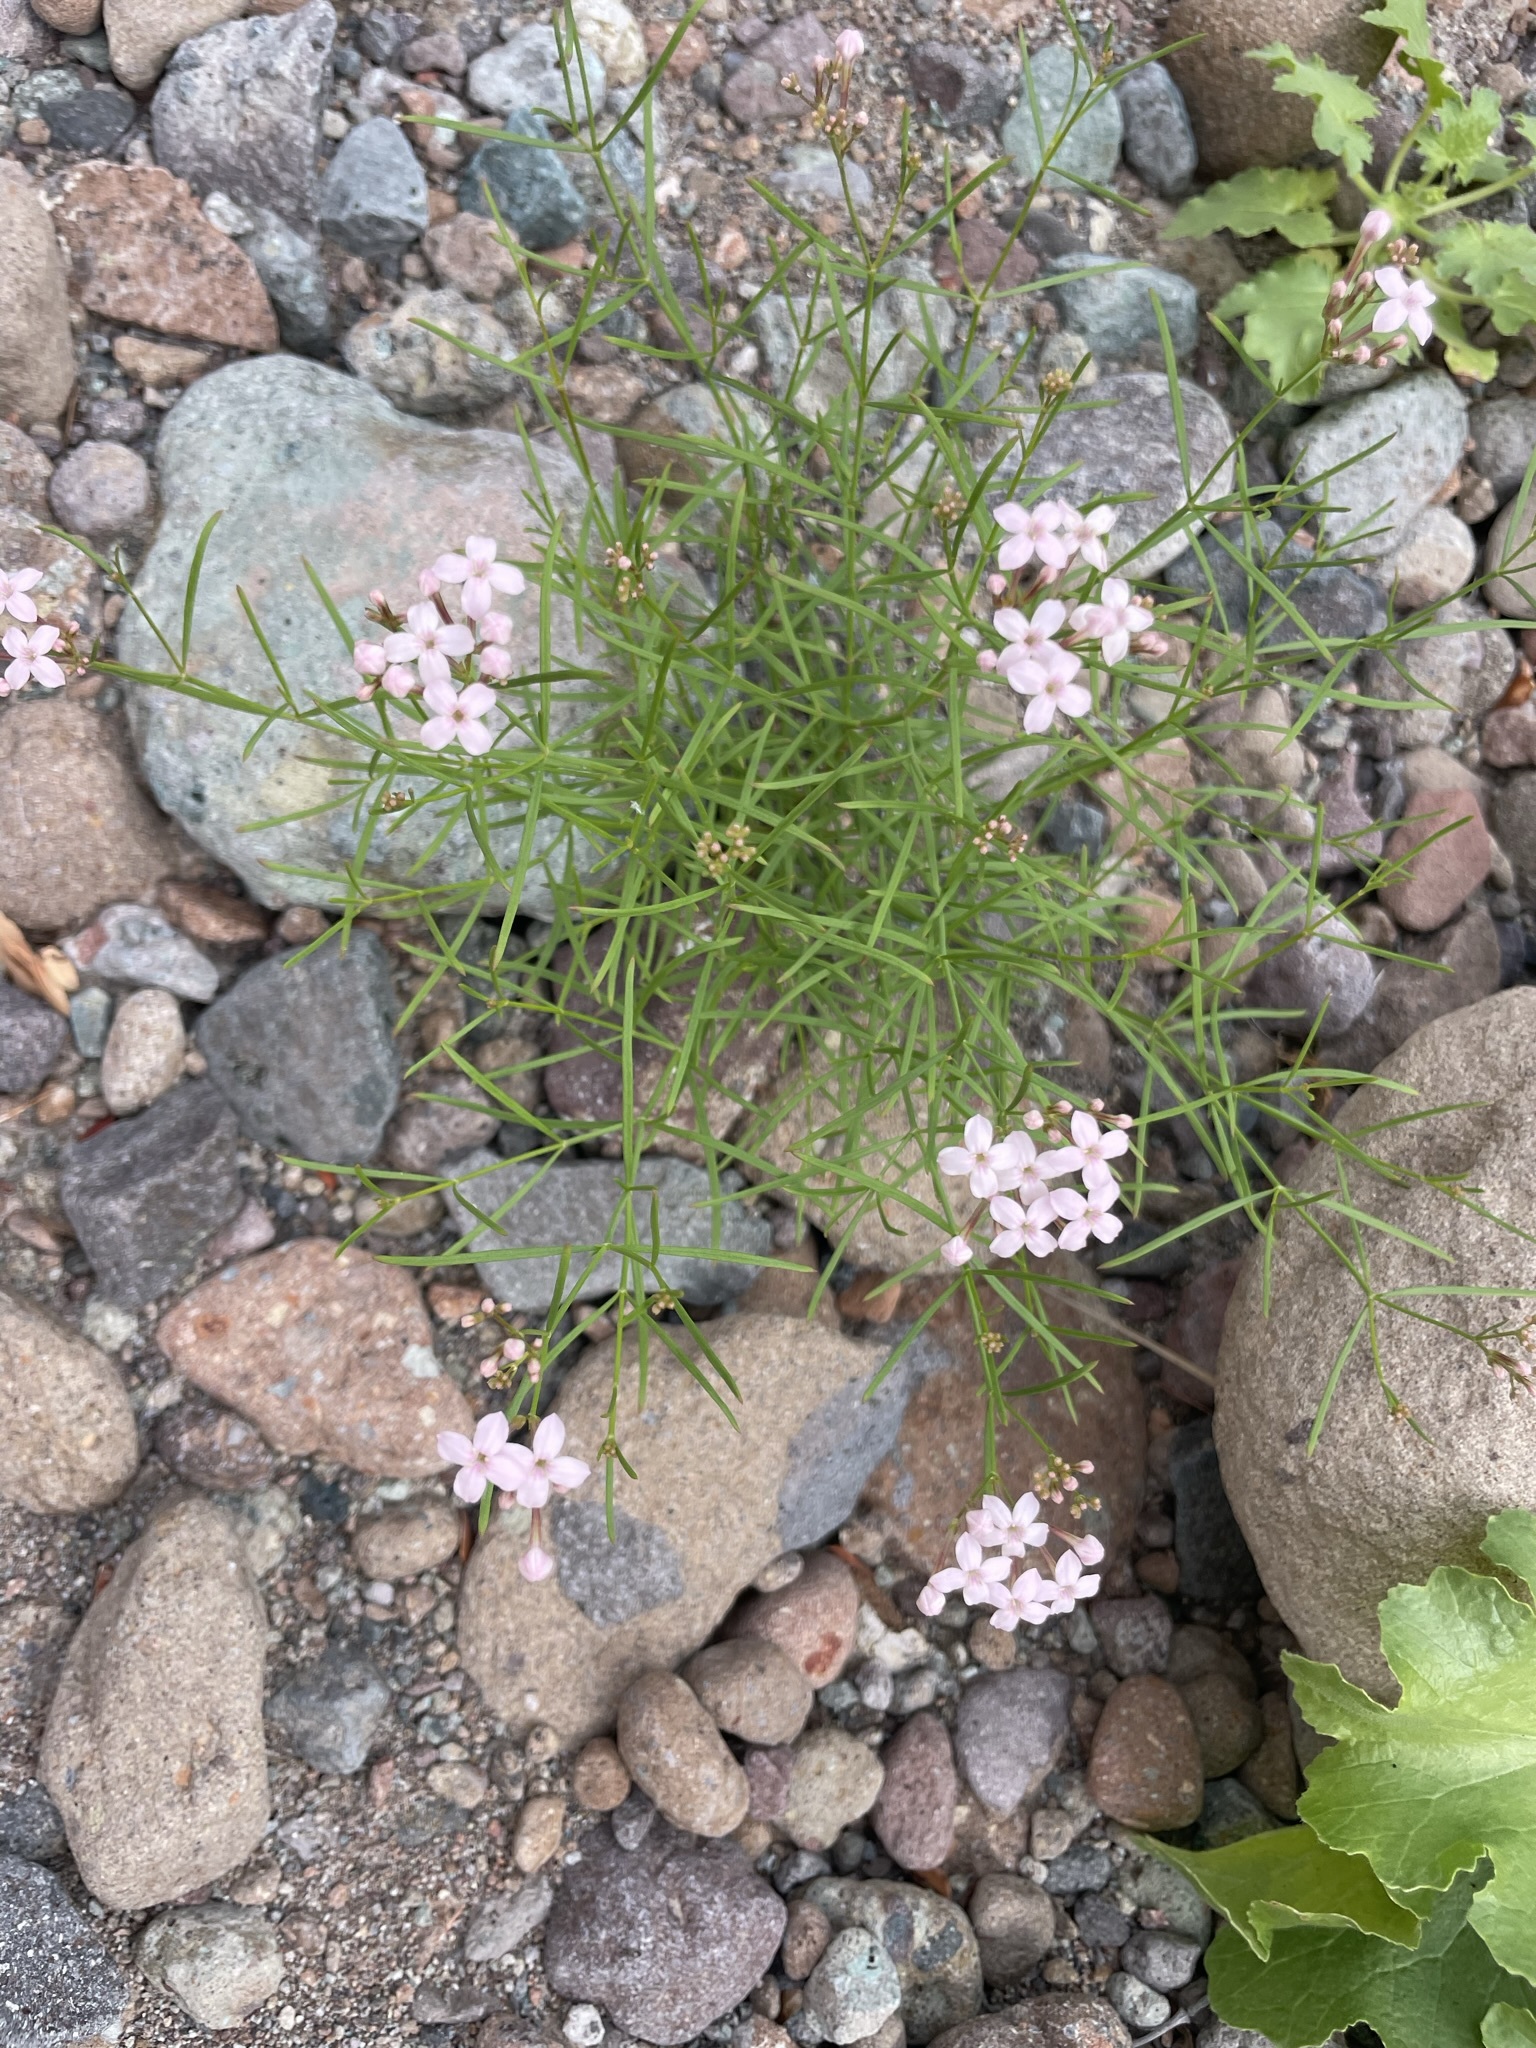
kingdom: Plantae
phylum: Tracheophyta
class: Magnoliopsida
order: Gentianales
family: Rubiaceae
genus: Stenotis
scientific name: Stenotis brevipes
